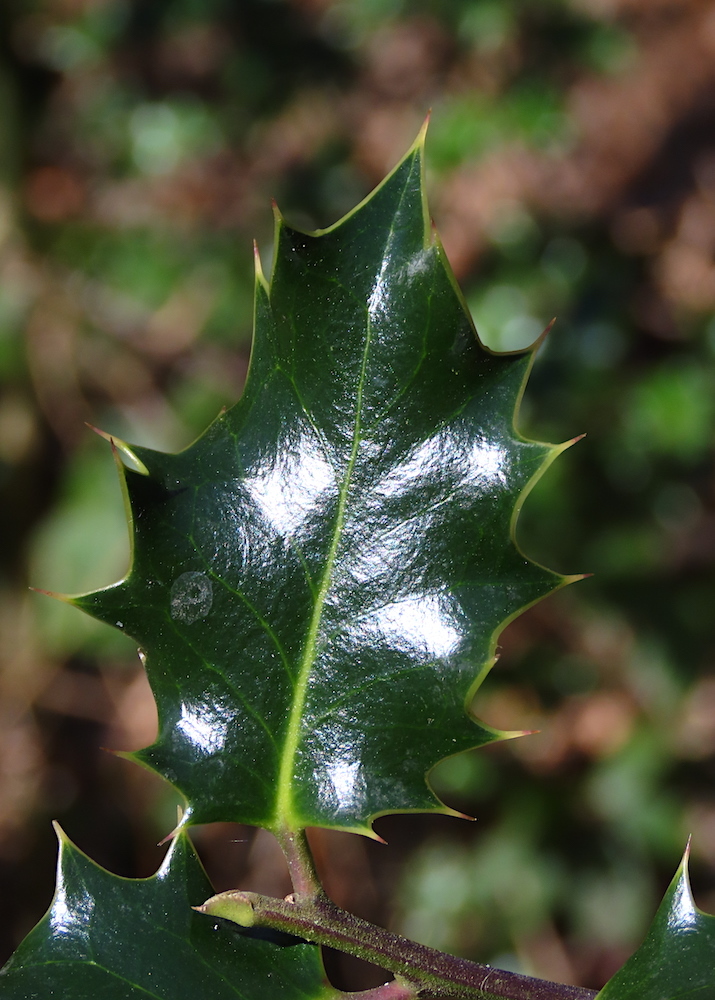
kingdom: Plantae
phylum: Tracheophyta
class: Magnoliopsida
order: Aquifoliales
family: Aquifoliaceae
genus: Ilex
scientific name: Ilex aquifolium
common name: English holly
